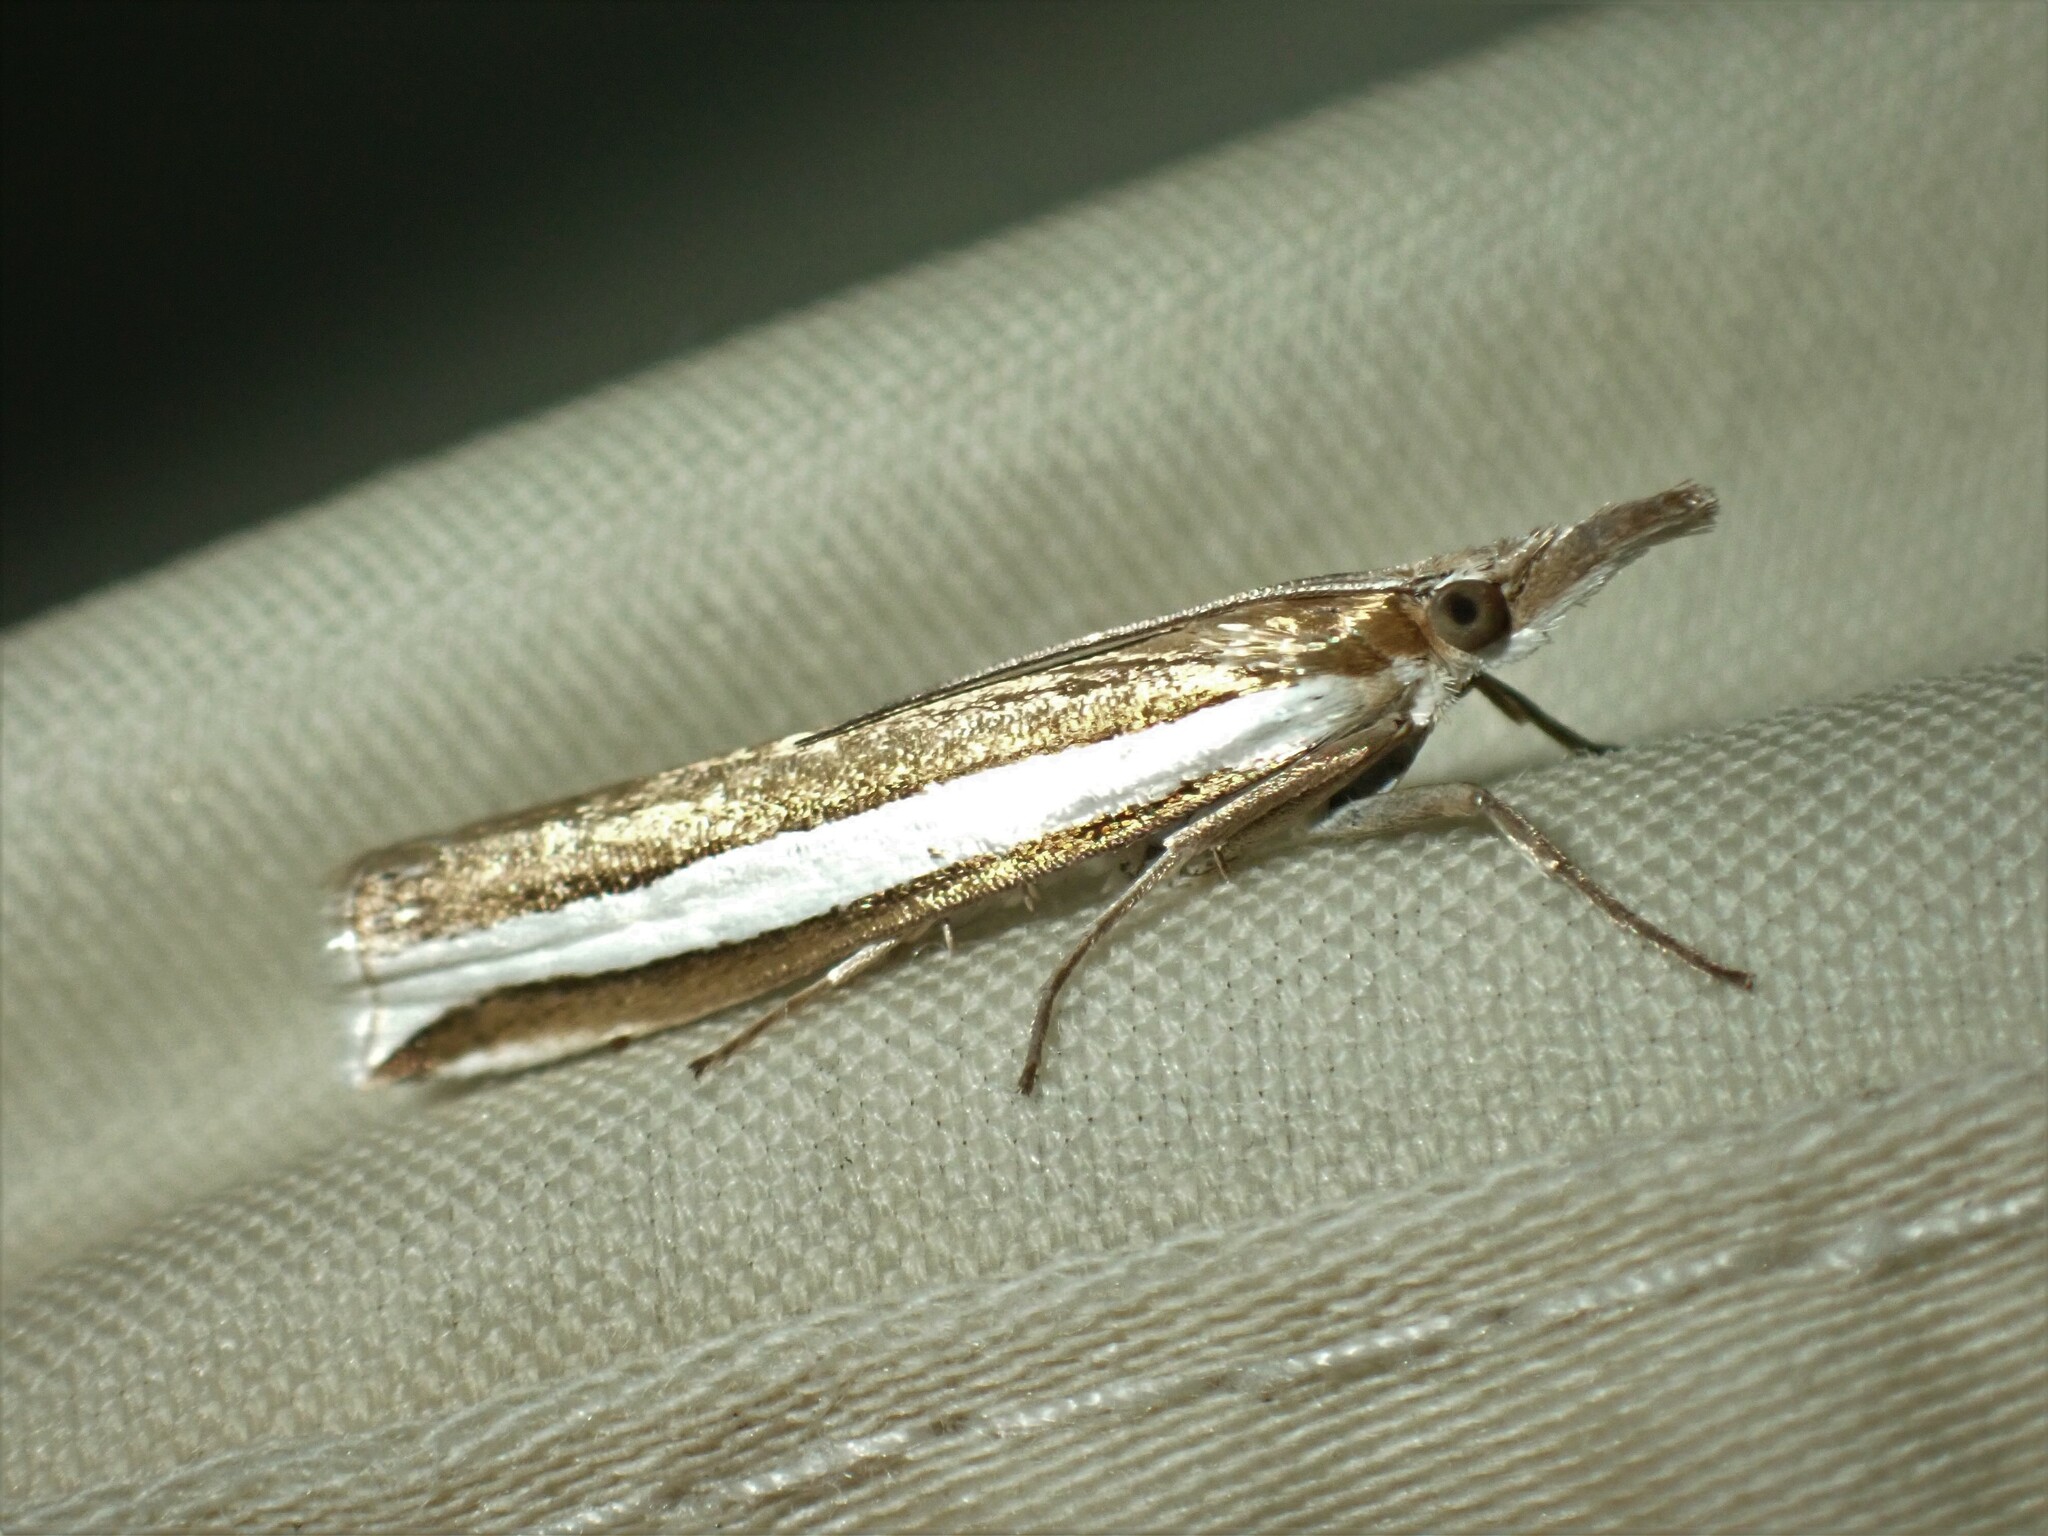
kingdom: Animalia
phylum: Arthropoda
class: Insecta
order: Lepidoptera
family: Crambidae
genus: Crambus
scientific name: Crambus unistriatellus
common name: Wide-stripe grass-veneer moth
